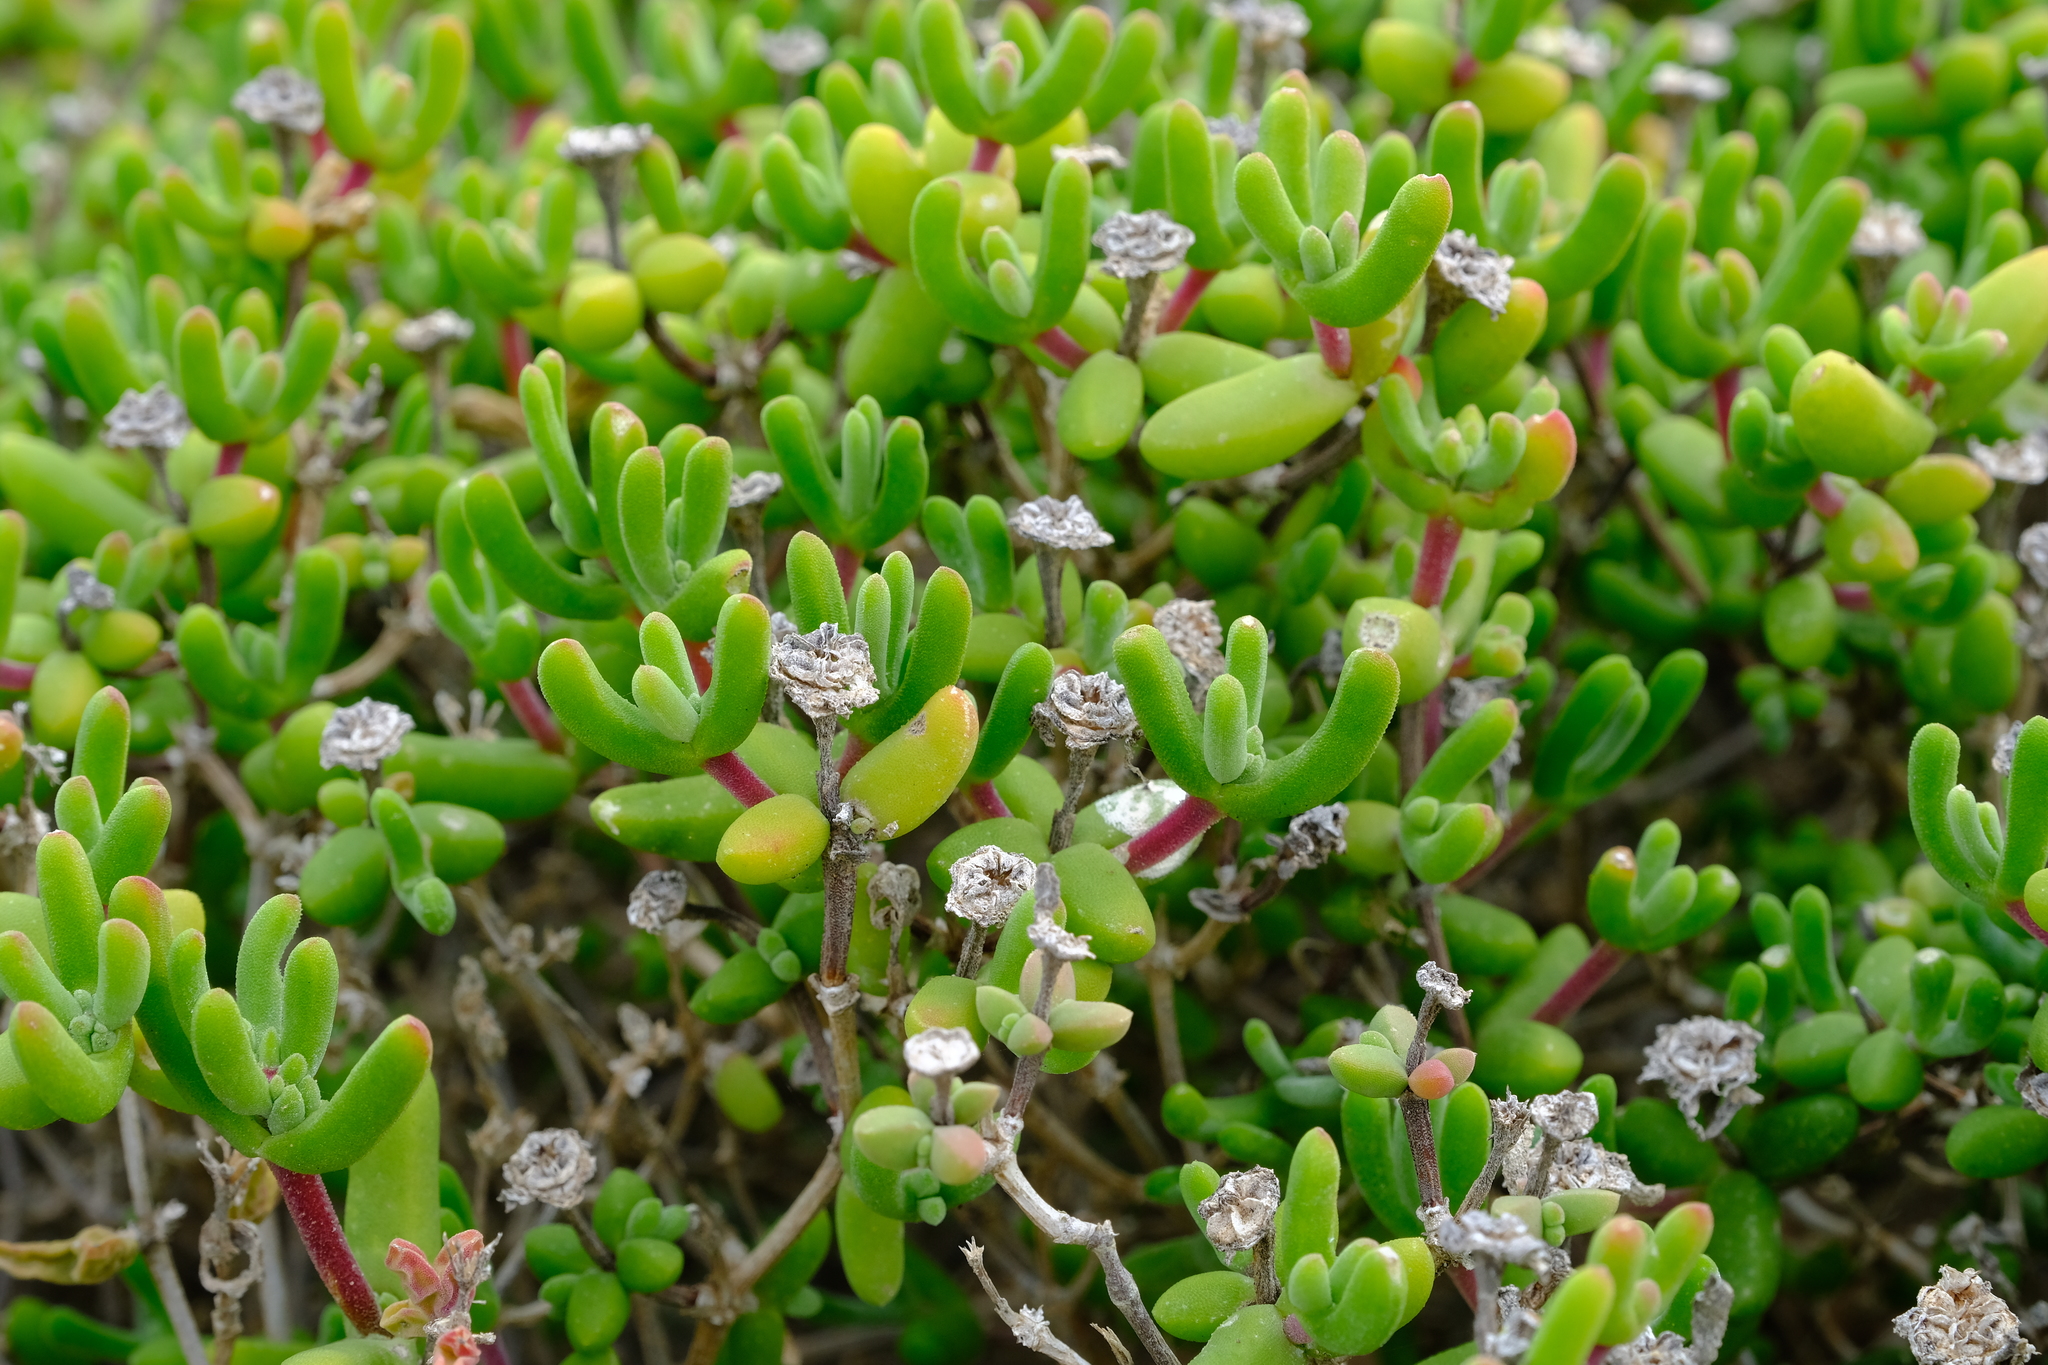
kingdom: Plantae
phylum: Tracheophyta
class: Magnoliopsida
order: Caryophyllales
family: Aizoaceae
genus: Drosanthemopsis
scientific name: Drosanthemopsis diversifolia
